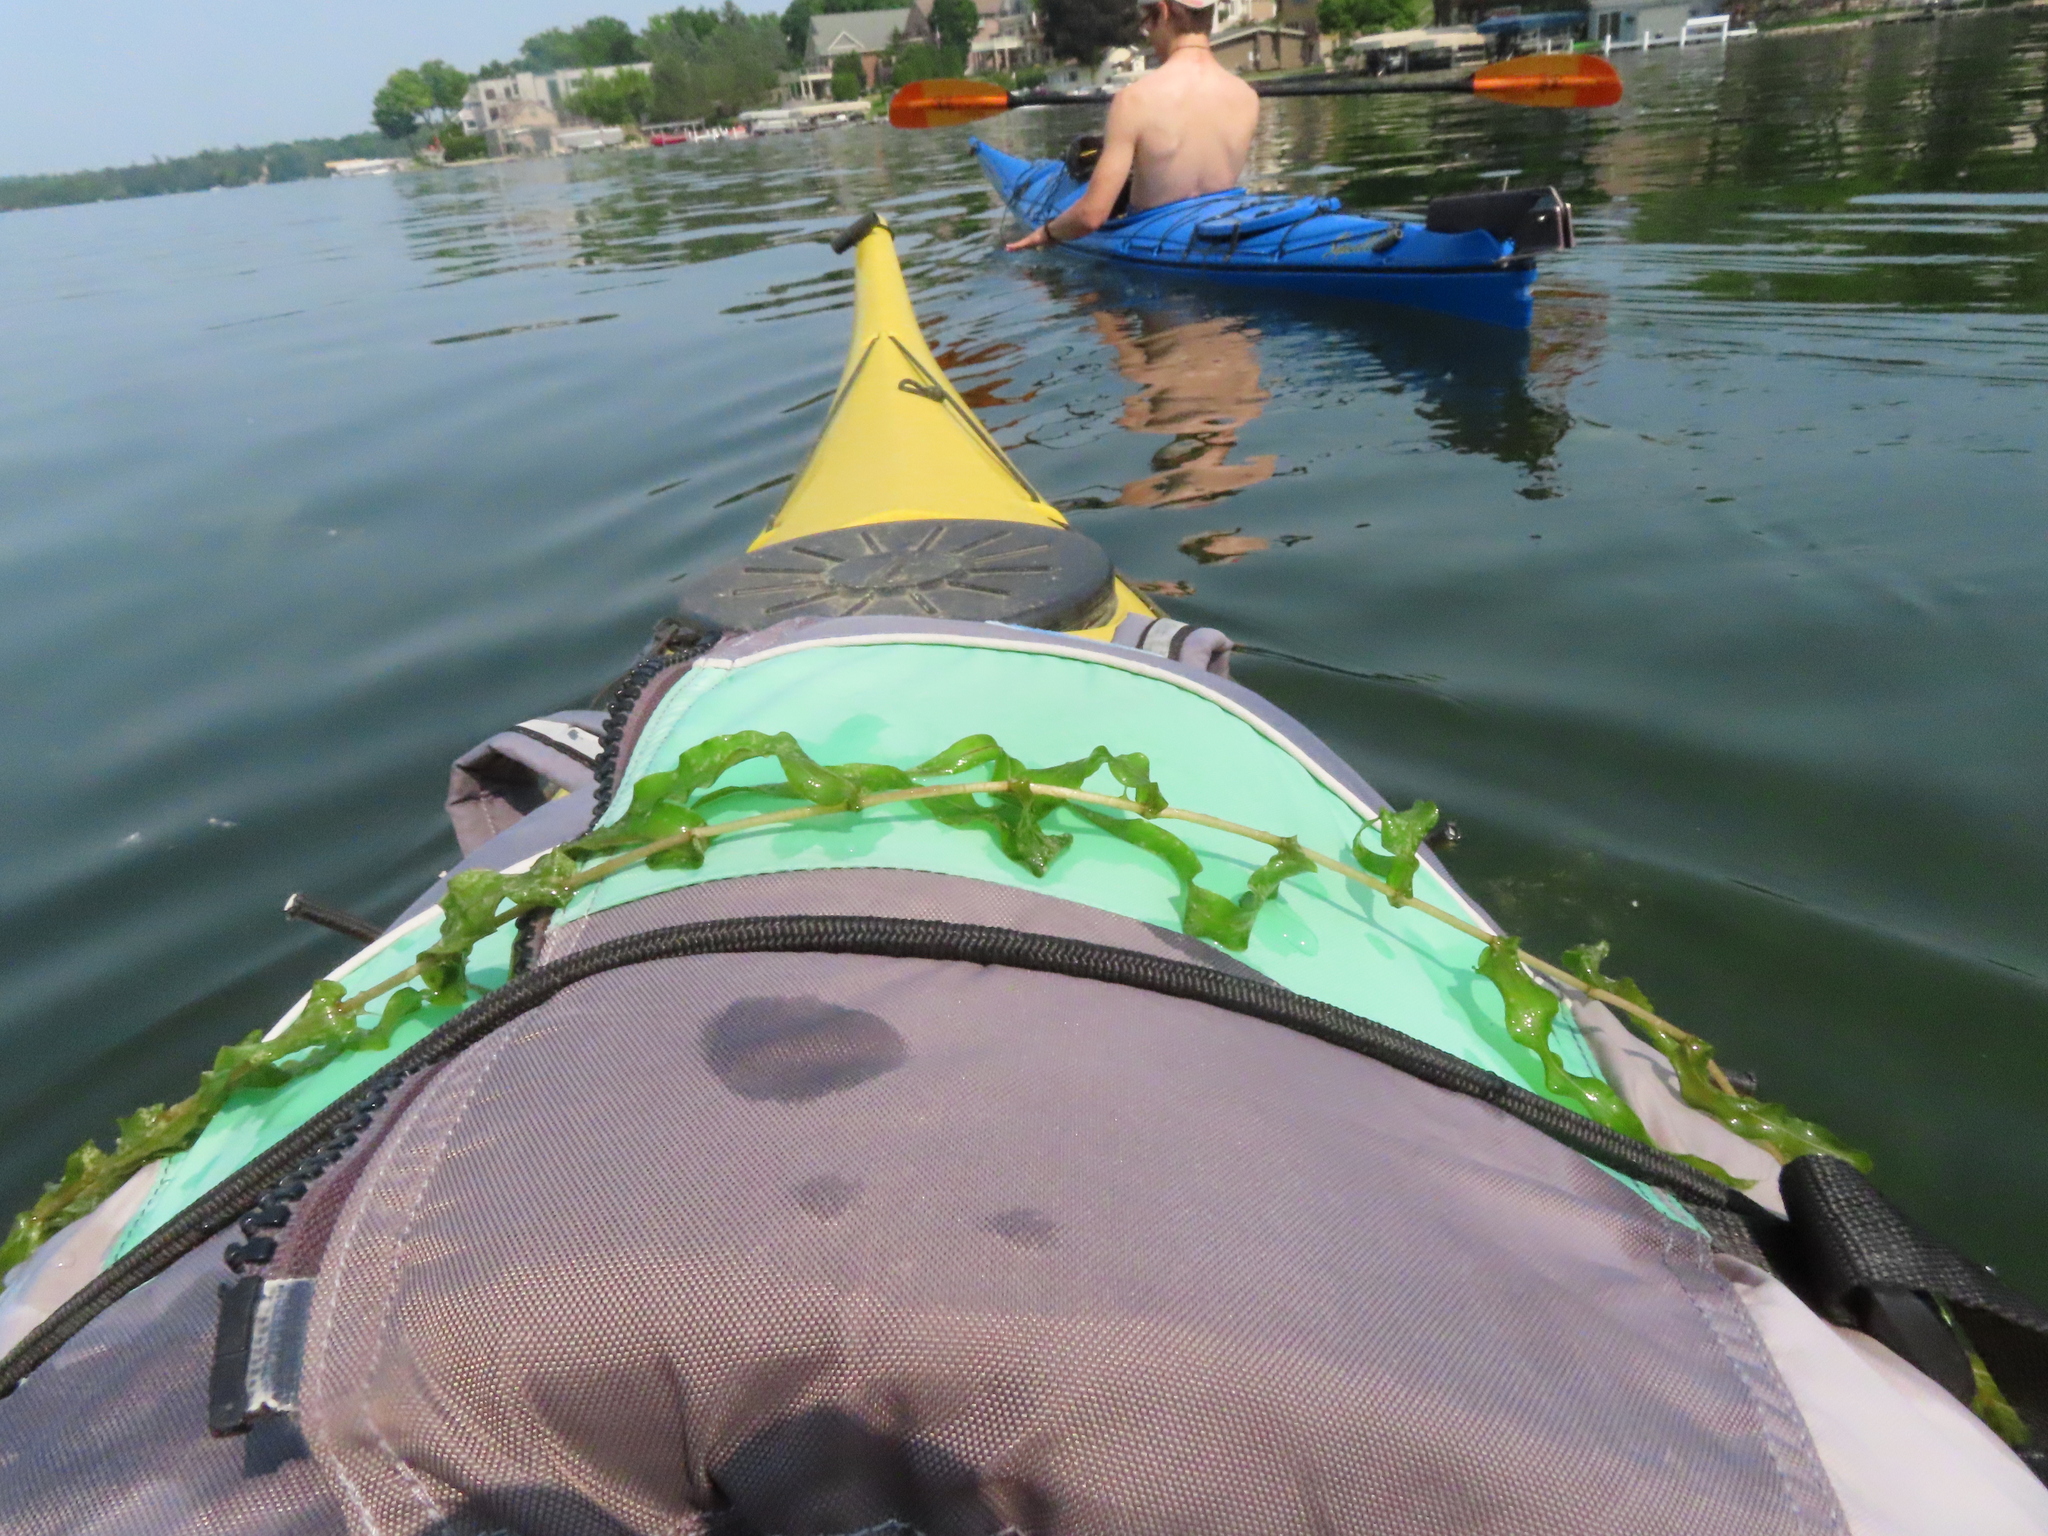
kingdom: Plantae
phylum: Tracheophyta
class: Liliopsida
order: Alismatales
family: Potamogetonaceae
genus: Potamogeton
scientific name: Potamogeton richardsonii
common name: Richardson's pondweed
